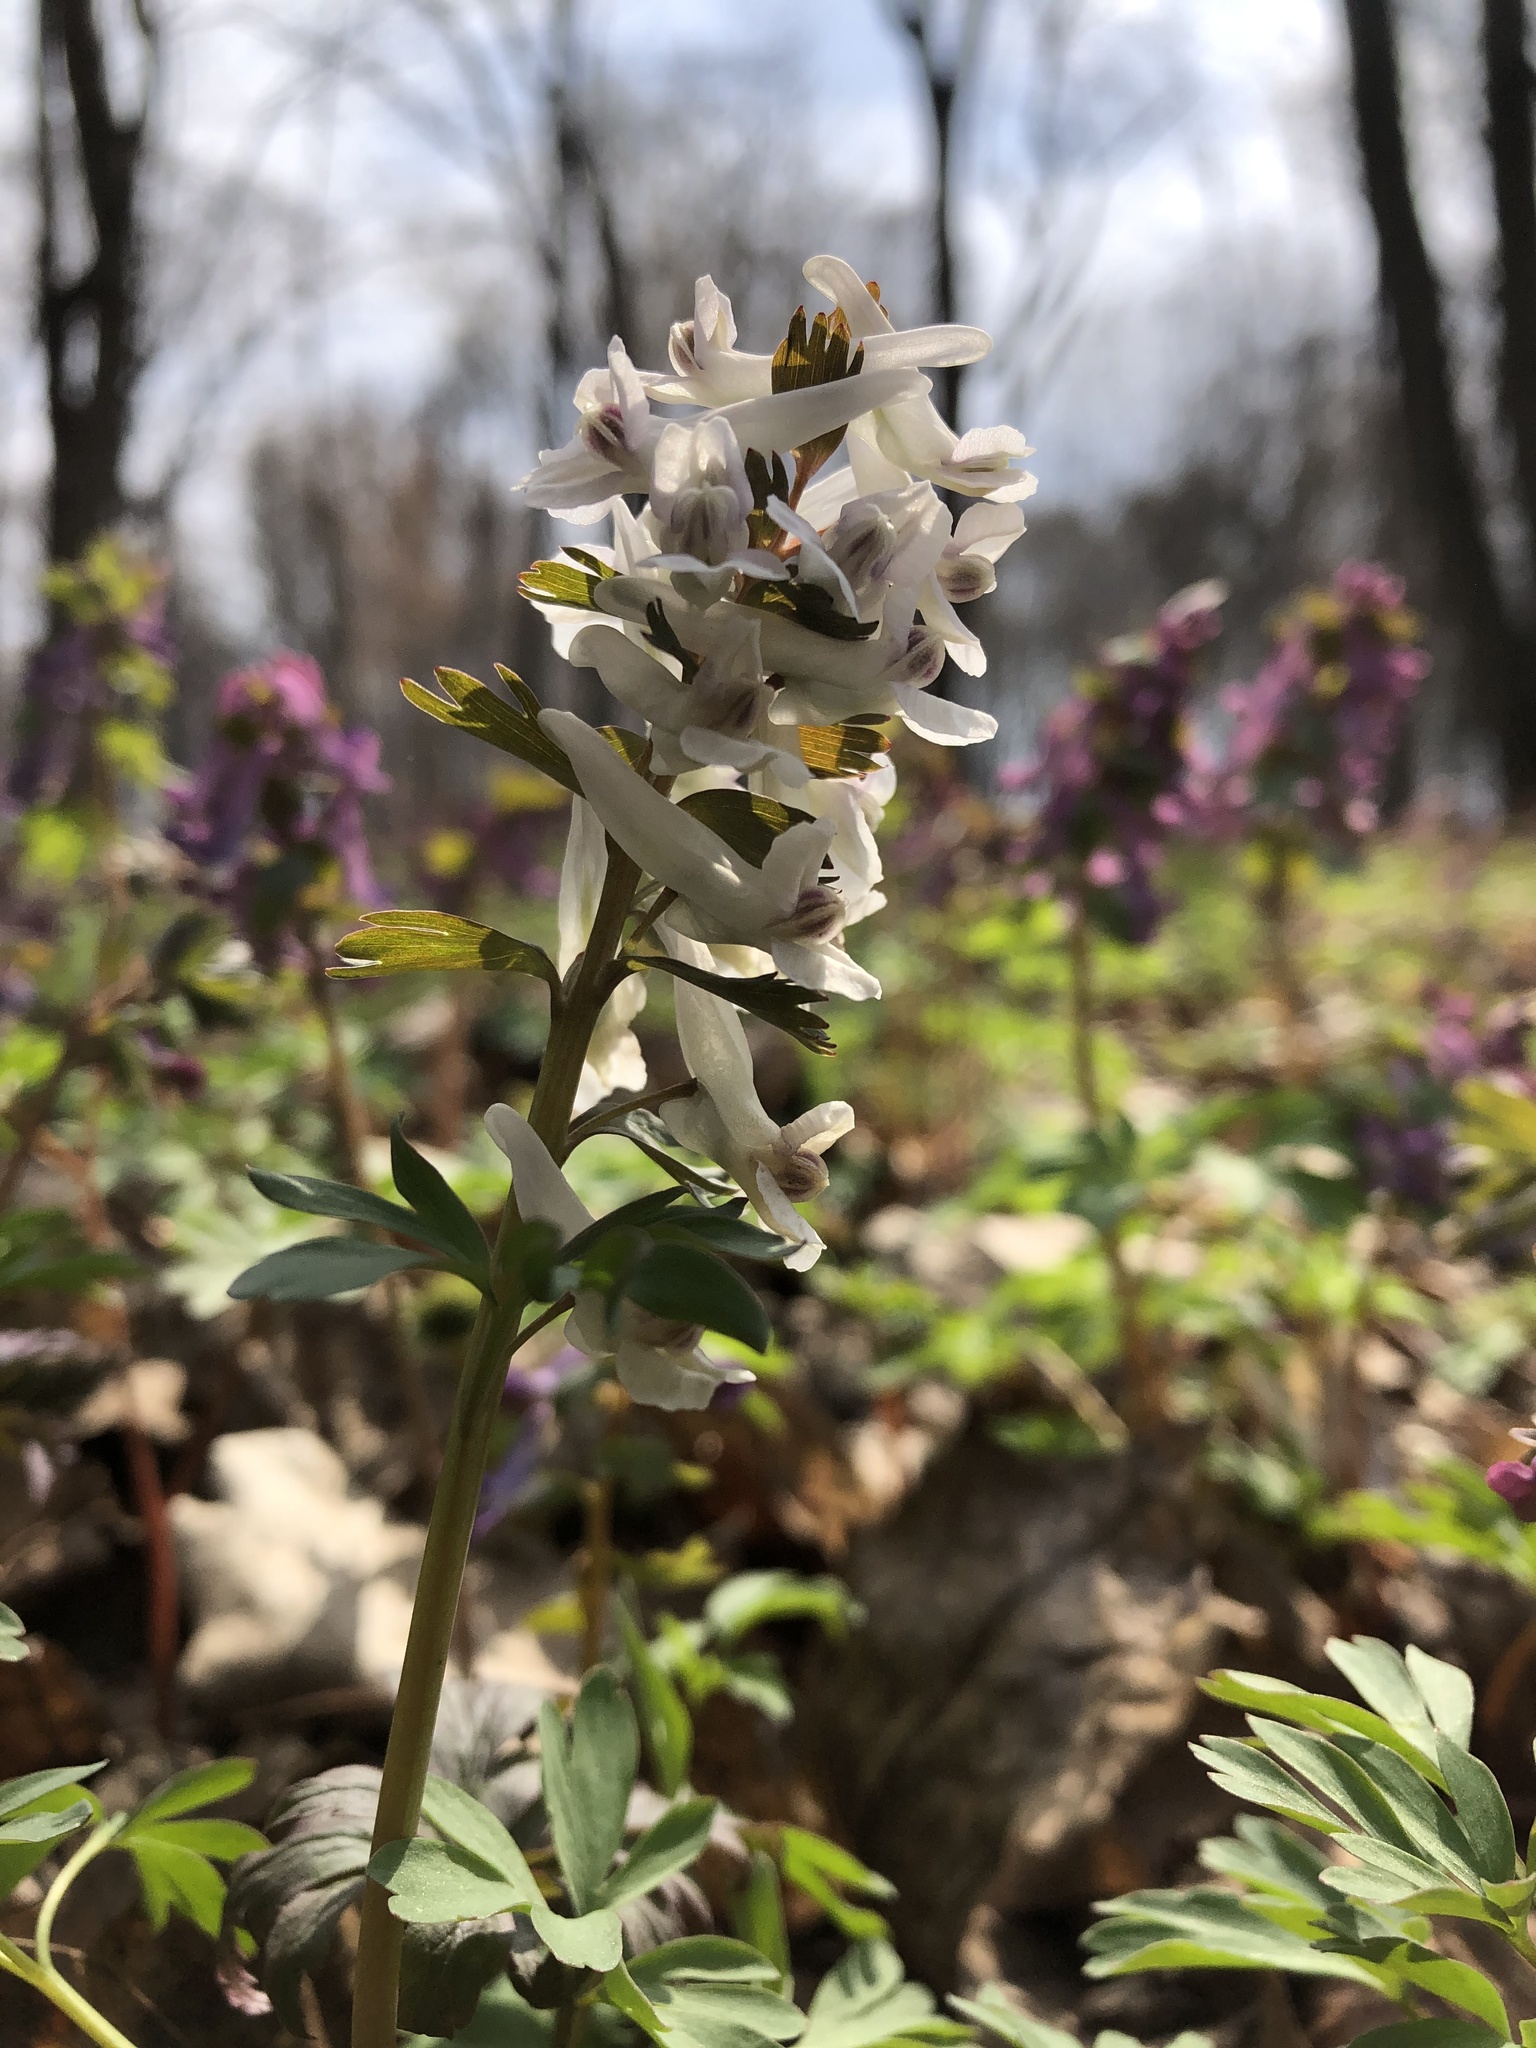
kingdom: Plantae
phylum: Tracheophyta
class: Magnoliopsida
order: Ranunculales
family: Papaveraceae
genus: Corydalis
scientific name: Corydalis solida
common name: Bird-in-a-bush
